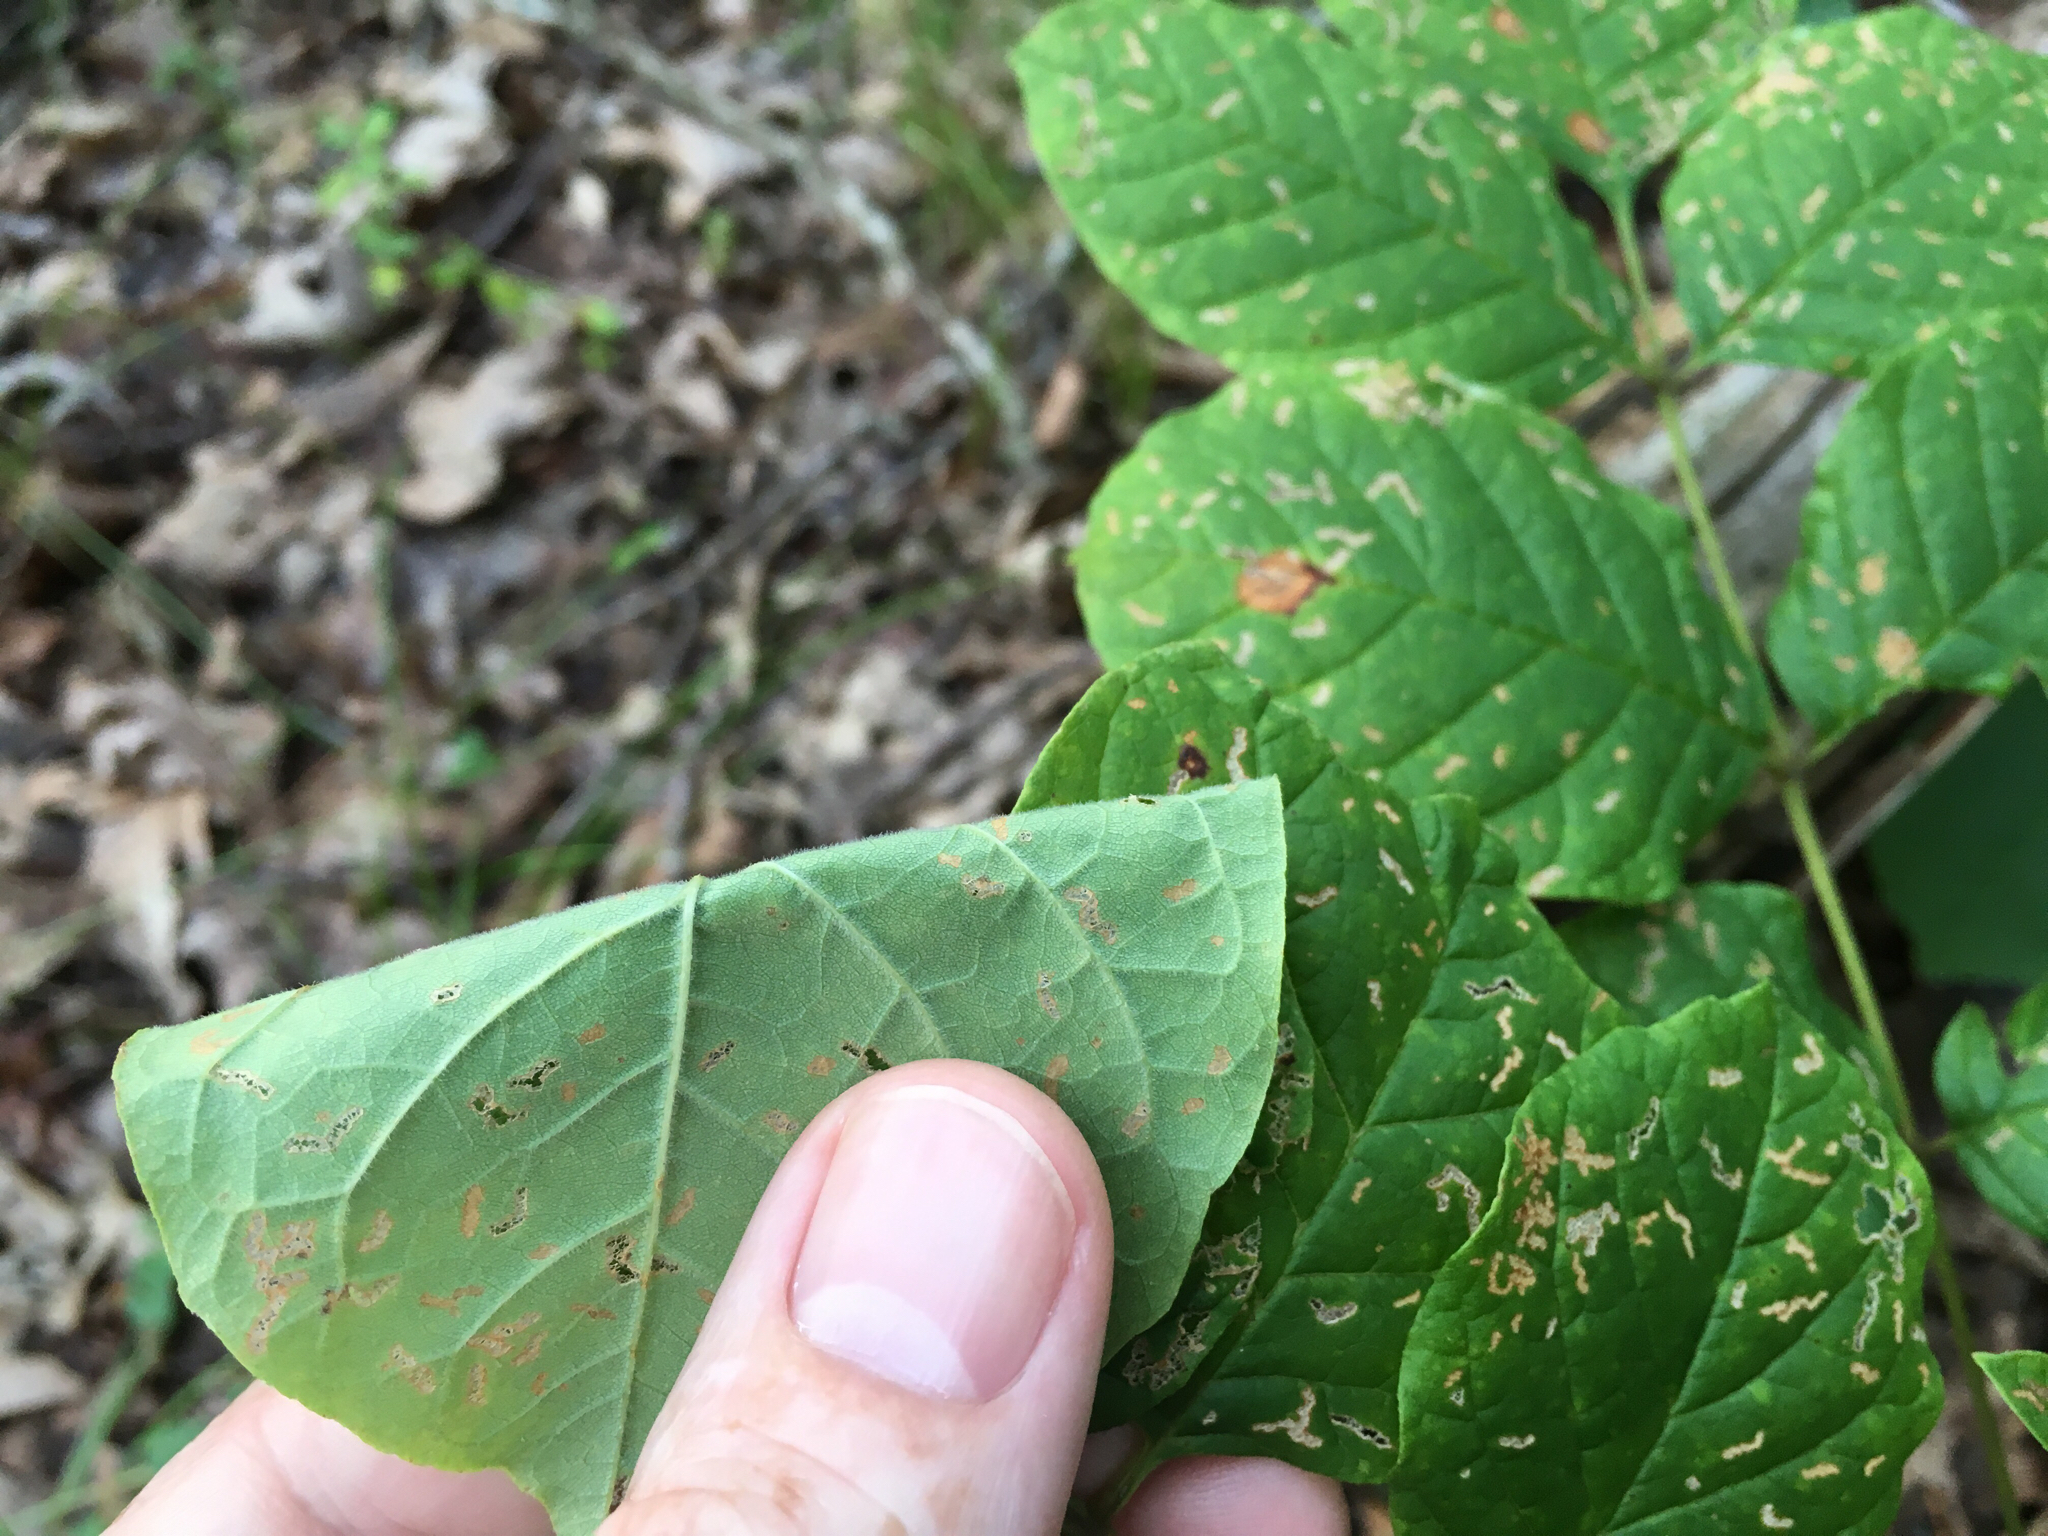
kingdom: Plantae
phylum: Tracheophyta
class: Magnoliopsida
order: Lamiales
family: Oleaceae
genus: Fraxinus
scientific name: Fraxinus americana
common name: White ash
